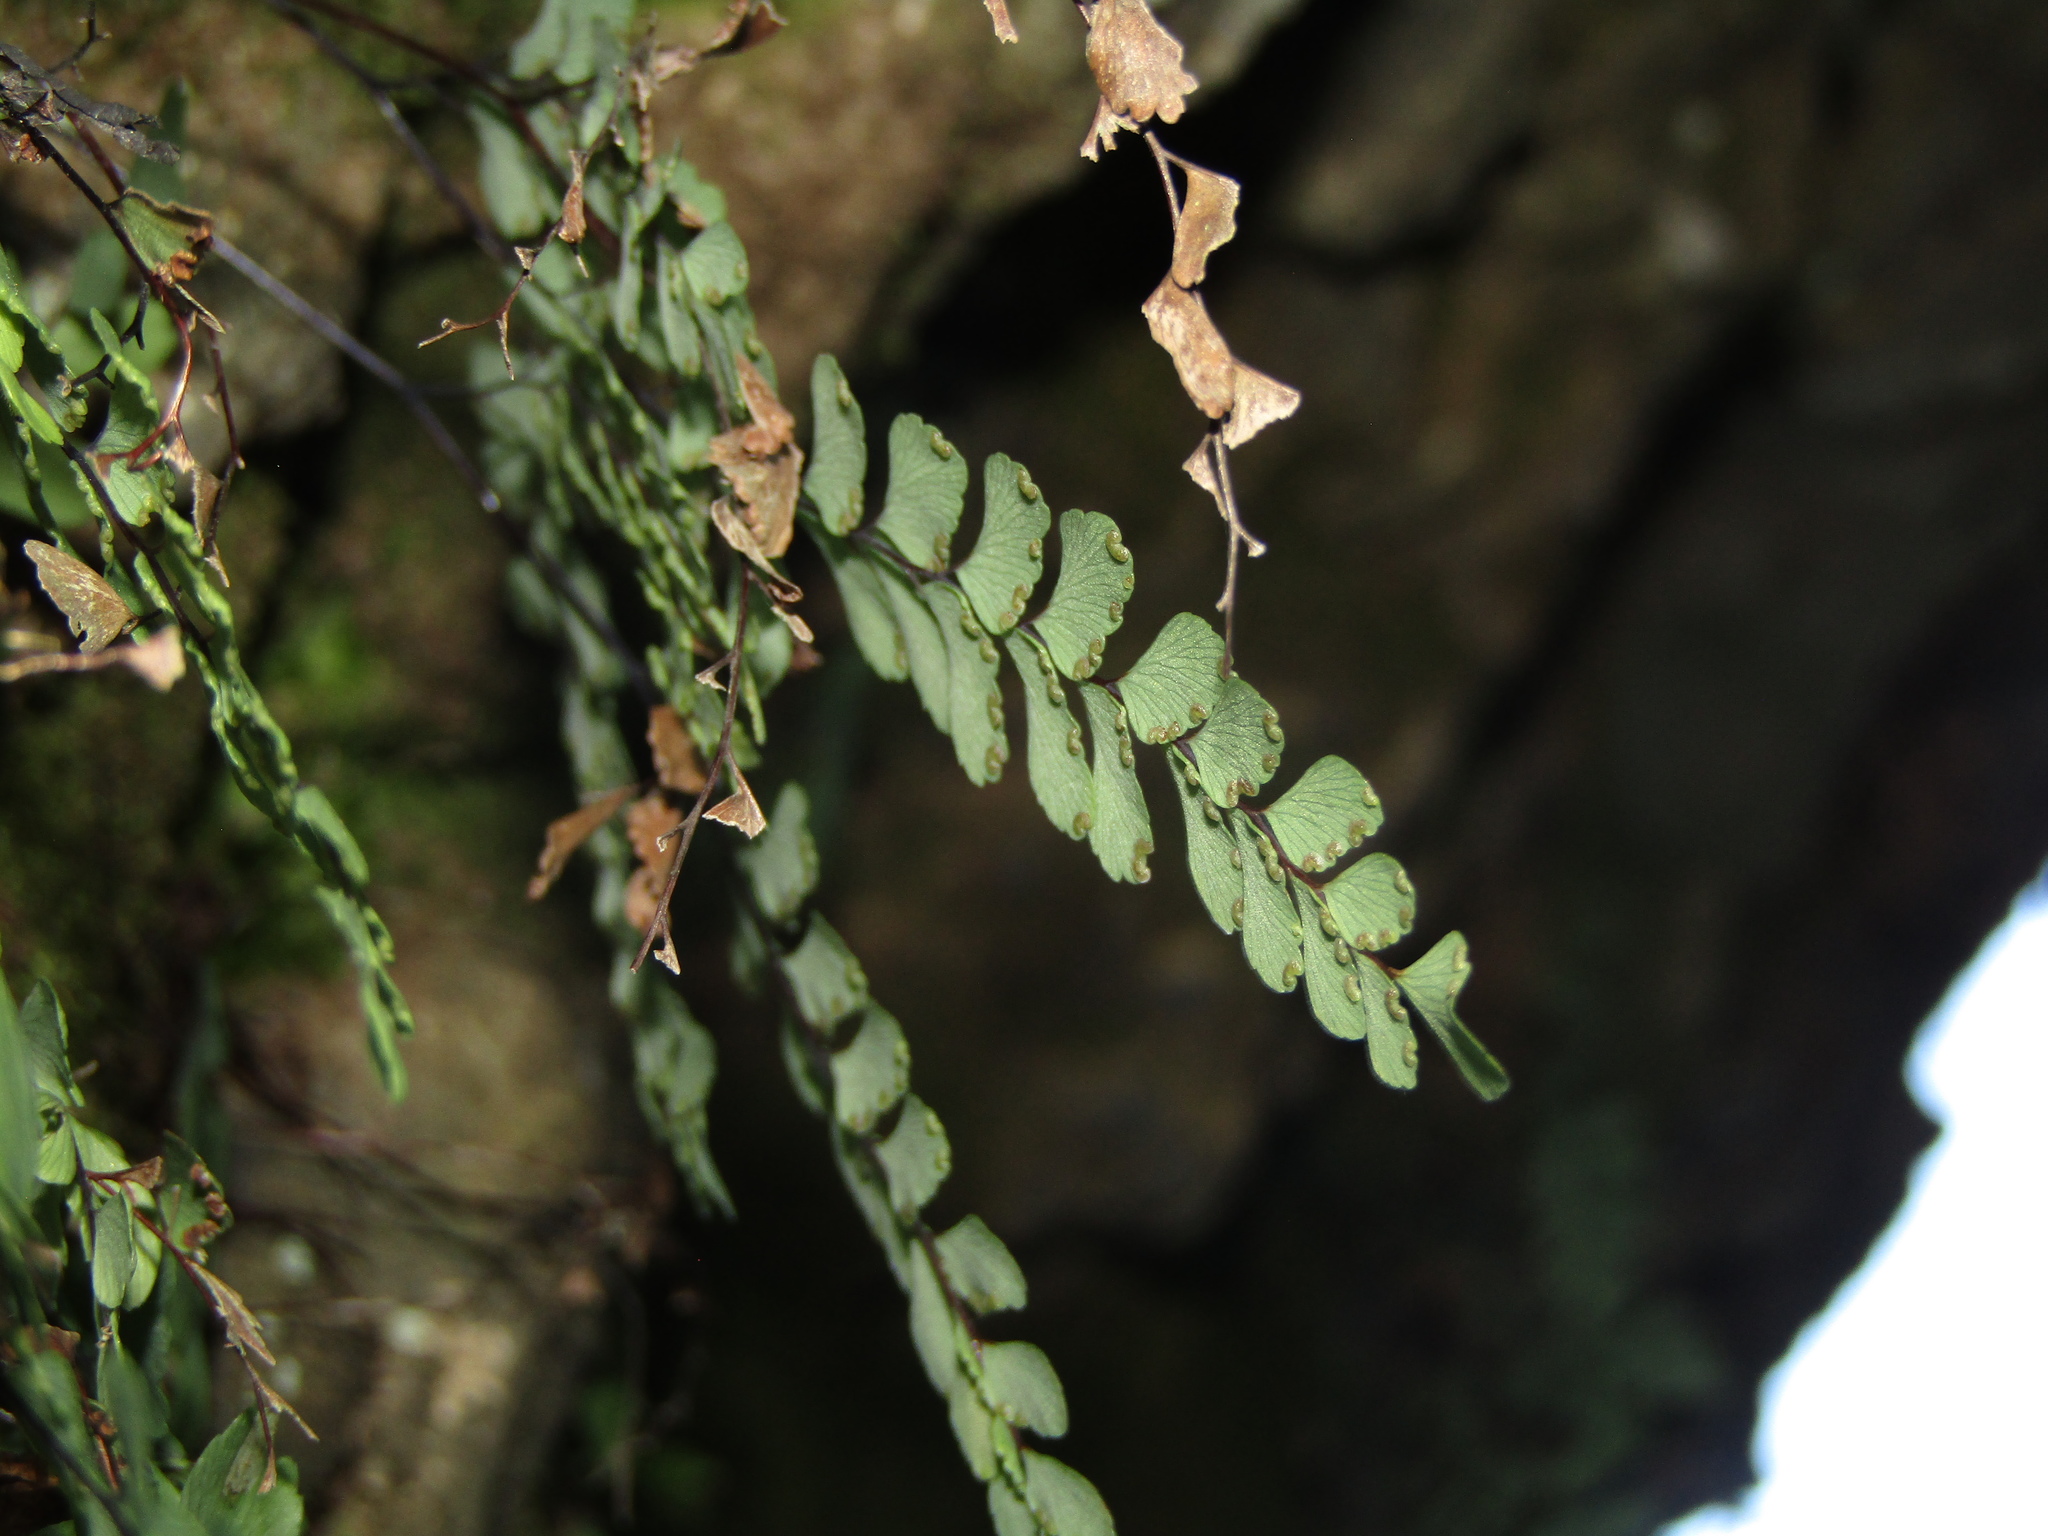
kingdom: Plantae
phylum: Tracheophyta
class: Polypodiopsida
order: Polypodiales
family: Pteridaceae
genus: Adiantum
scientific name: Adiantum cunninghamii
